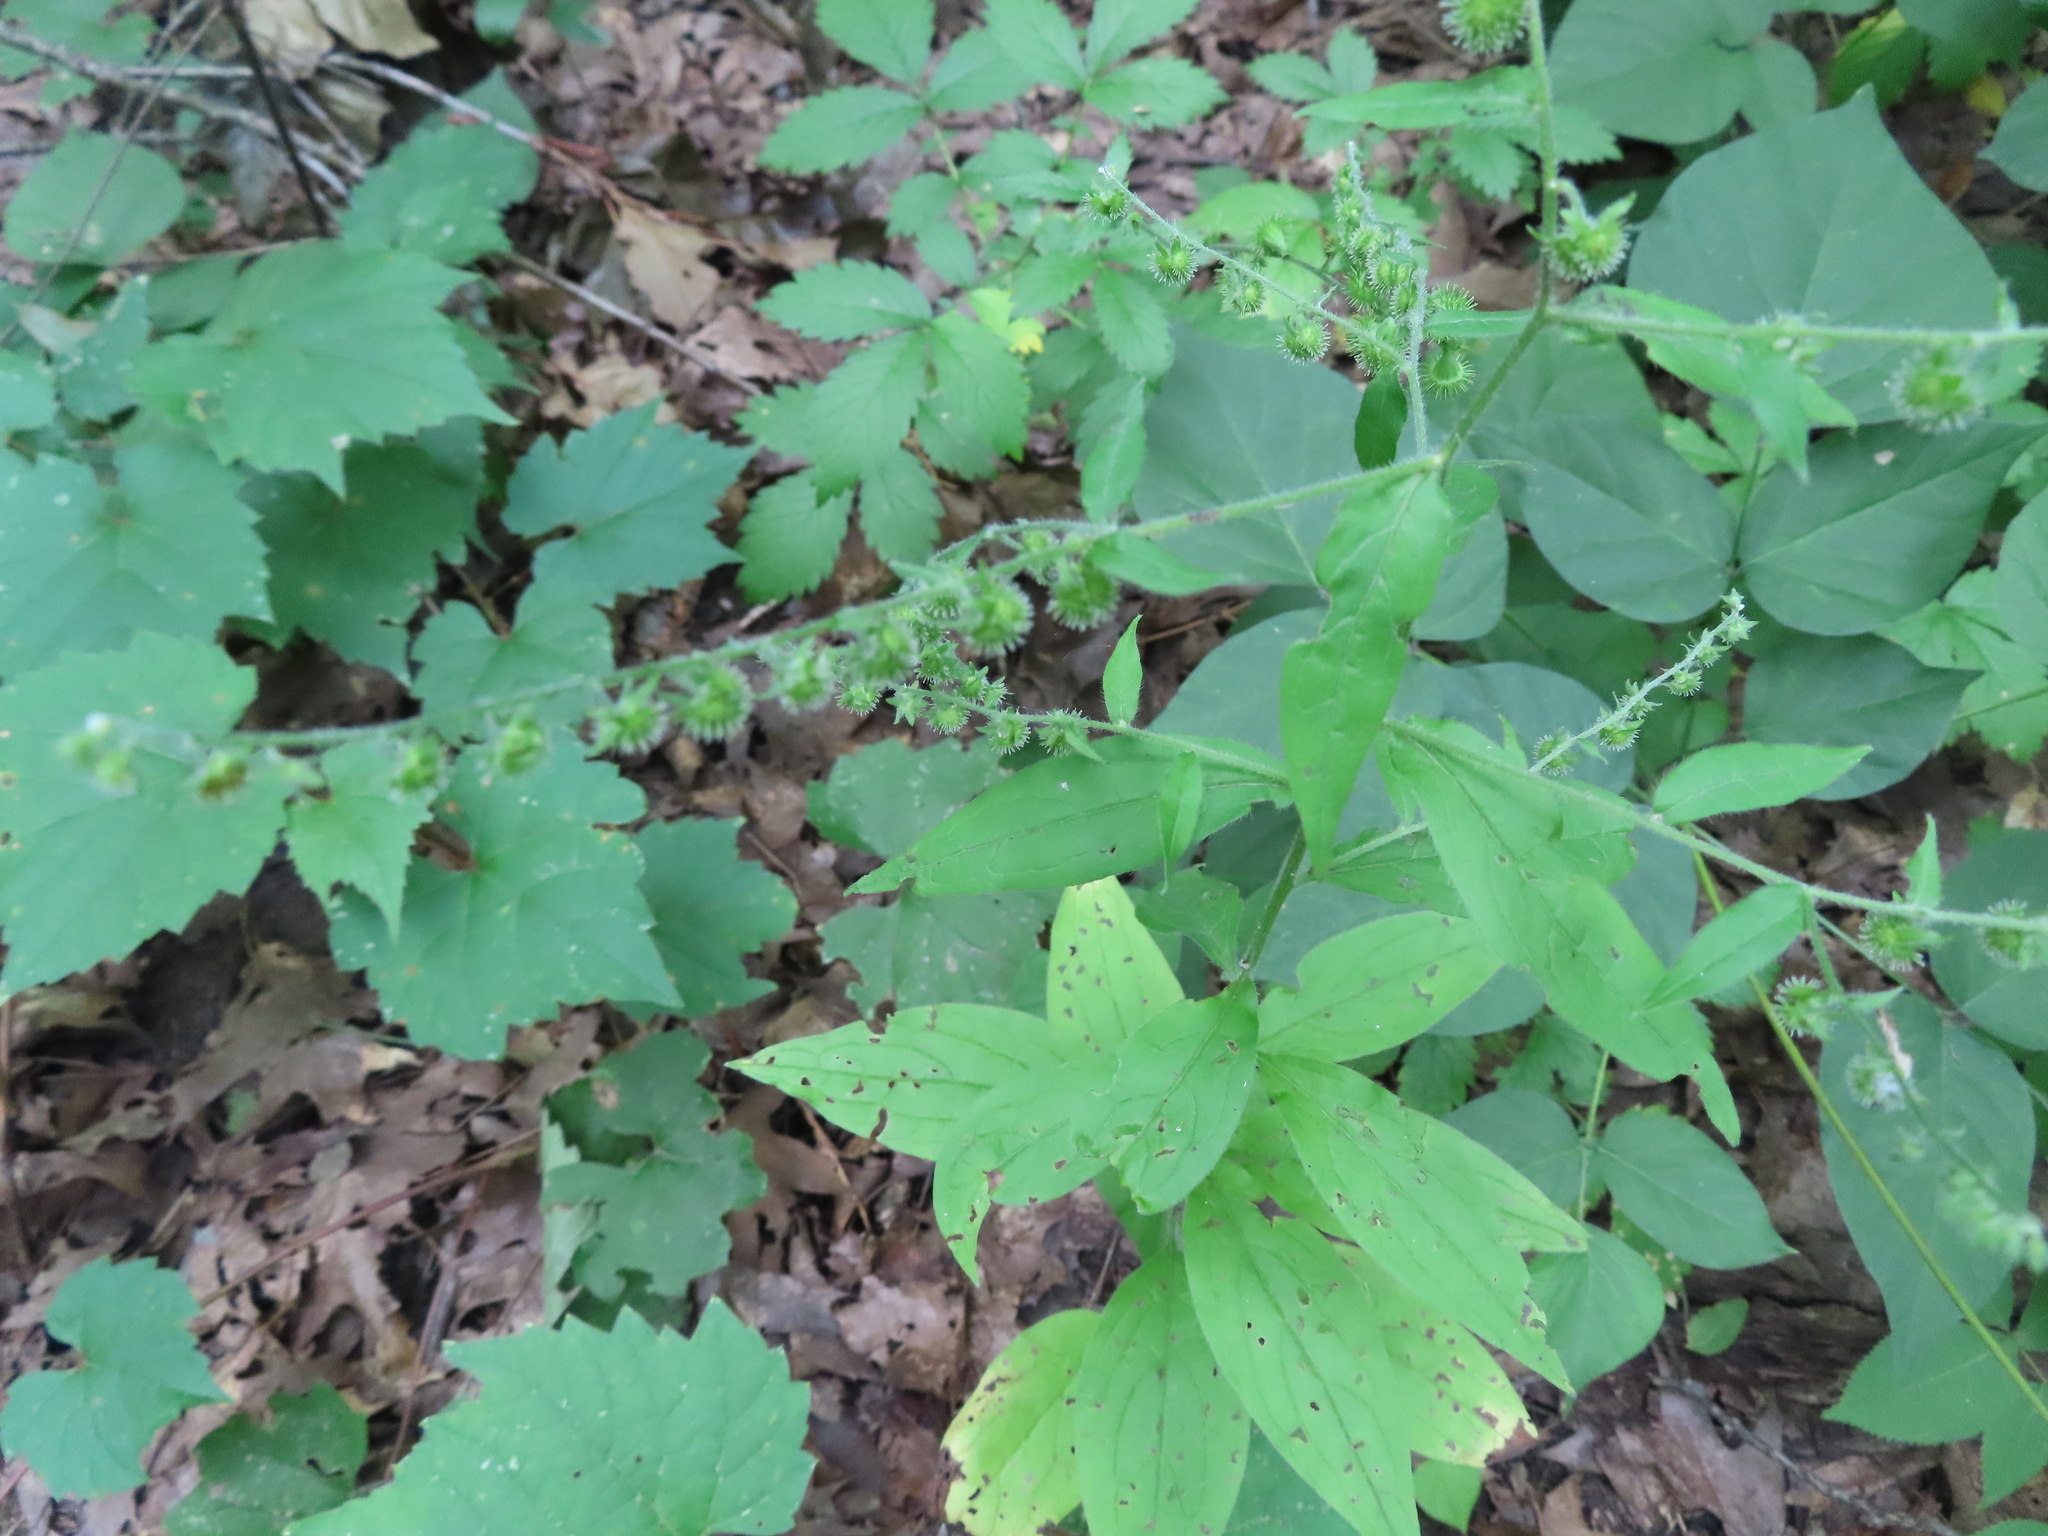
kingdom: Plantae
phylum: Tracheophyta
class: Magnoliopsida
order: Boraginales
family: Boraginaceae
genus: Hackelia
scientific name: Hackelia virginiana
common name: Beggar's-lice
